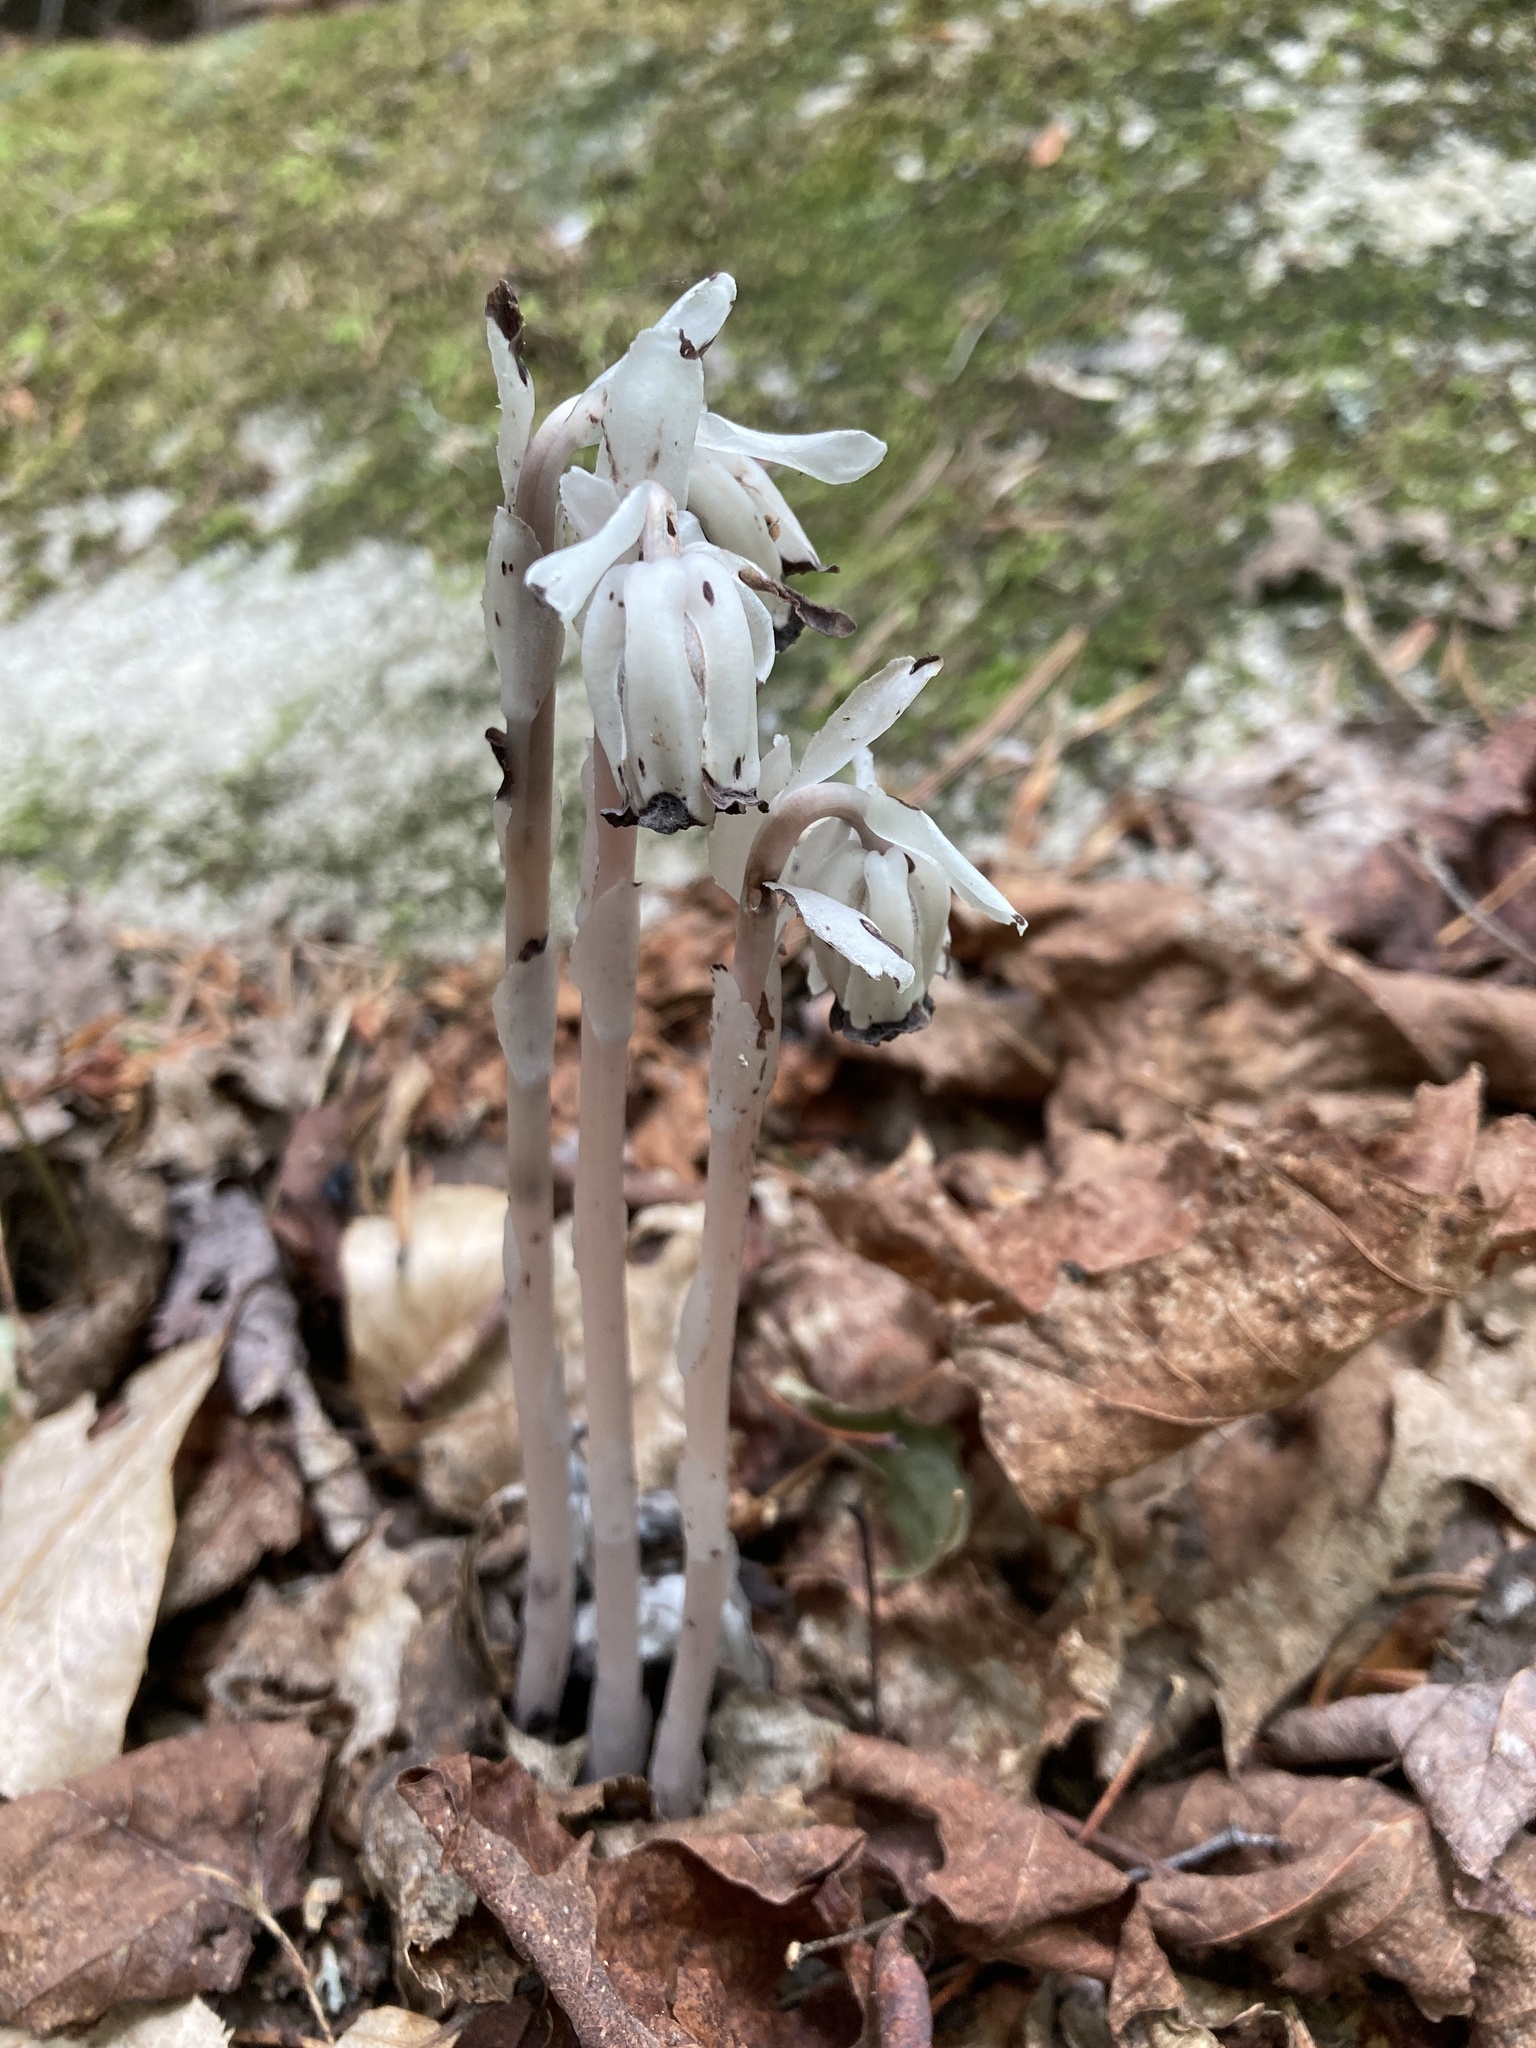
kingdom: Plantae
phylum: Tracheophyta
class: Magnoliopsida
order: Ericales
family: Ericaceae
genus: Monotropa
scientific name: Monotropa uniflora
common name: Convulsion root
